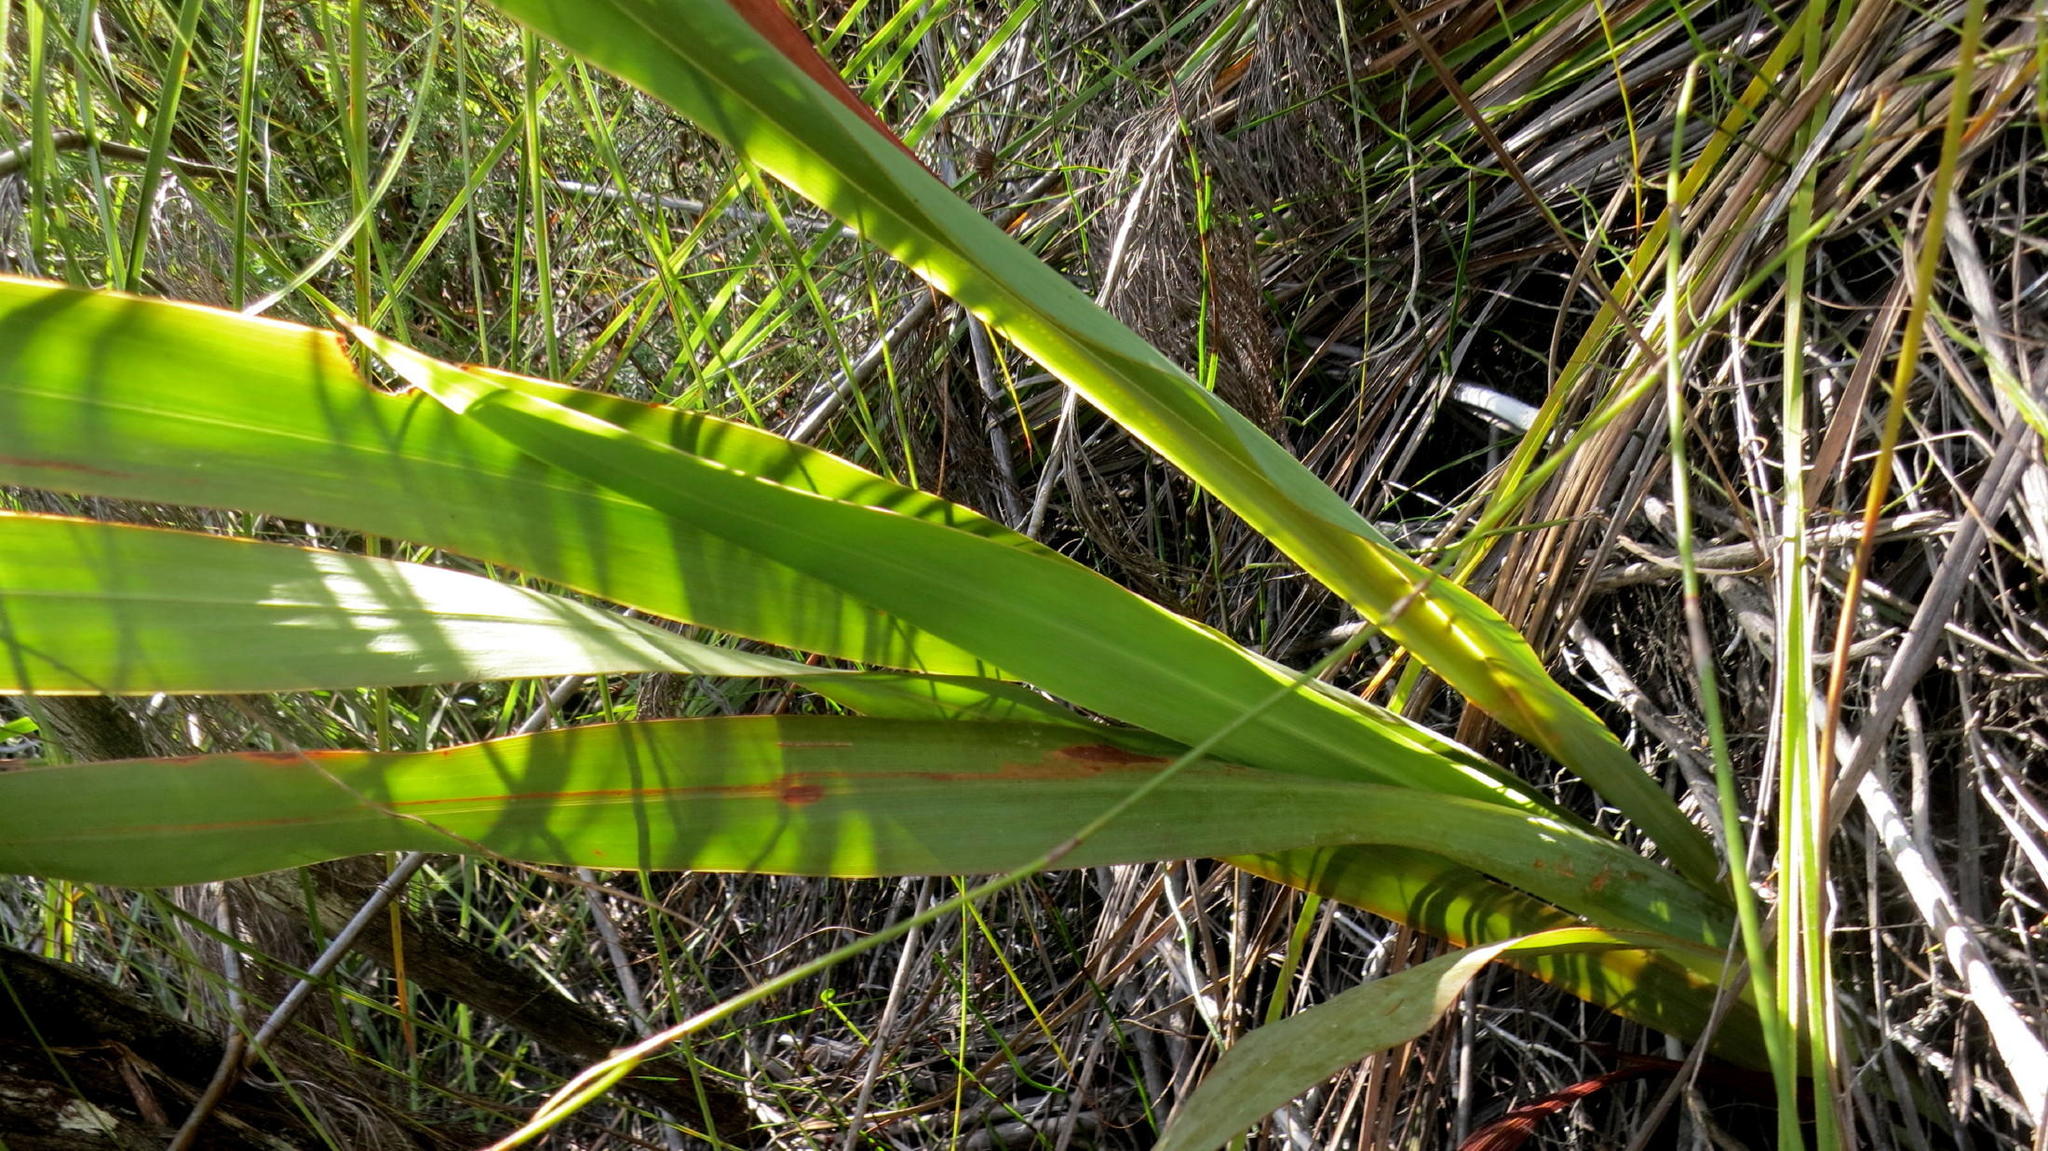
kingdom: Plantae
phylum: Tracheophyta
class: Liliopsida
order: Asparagales
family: Iridaceae
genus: Gladiolus
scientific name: Gladiolus sempervirens
